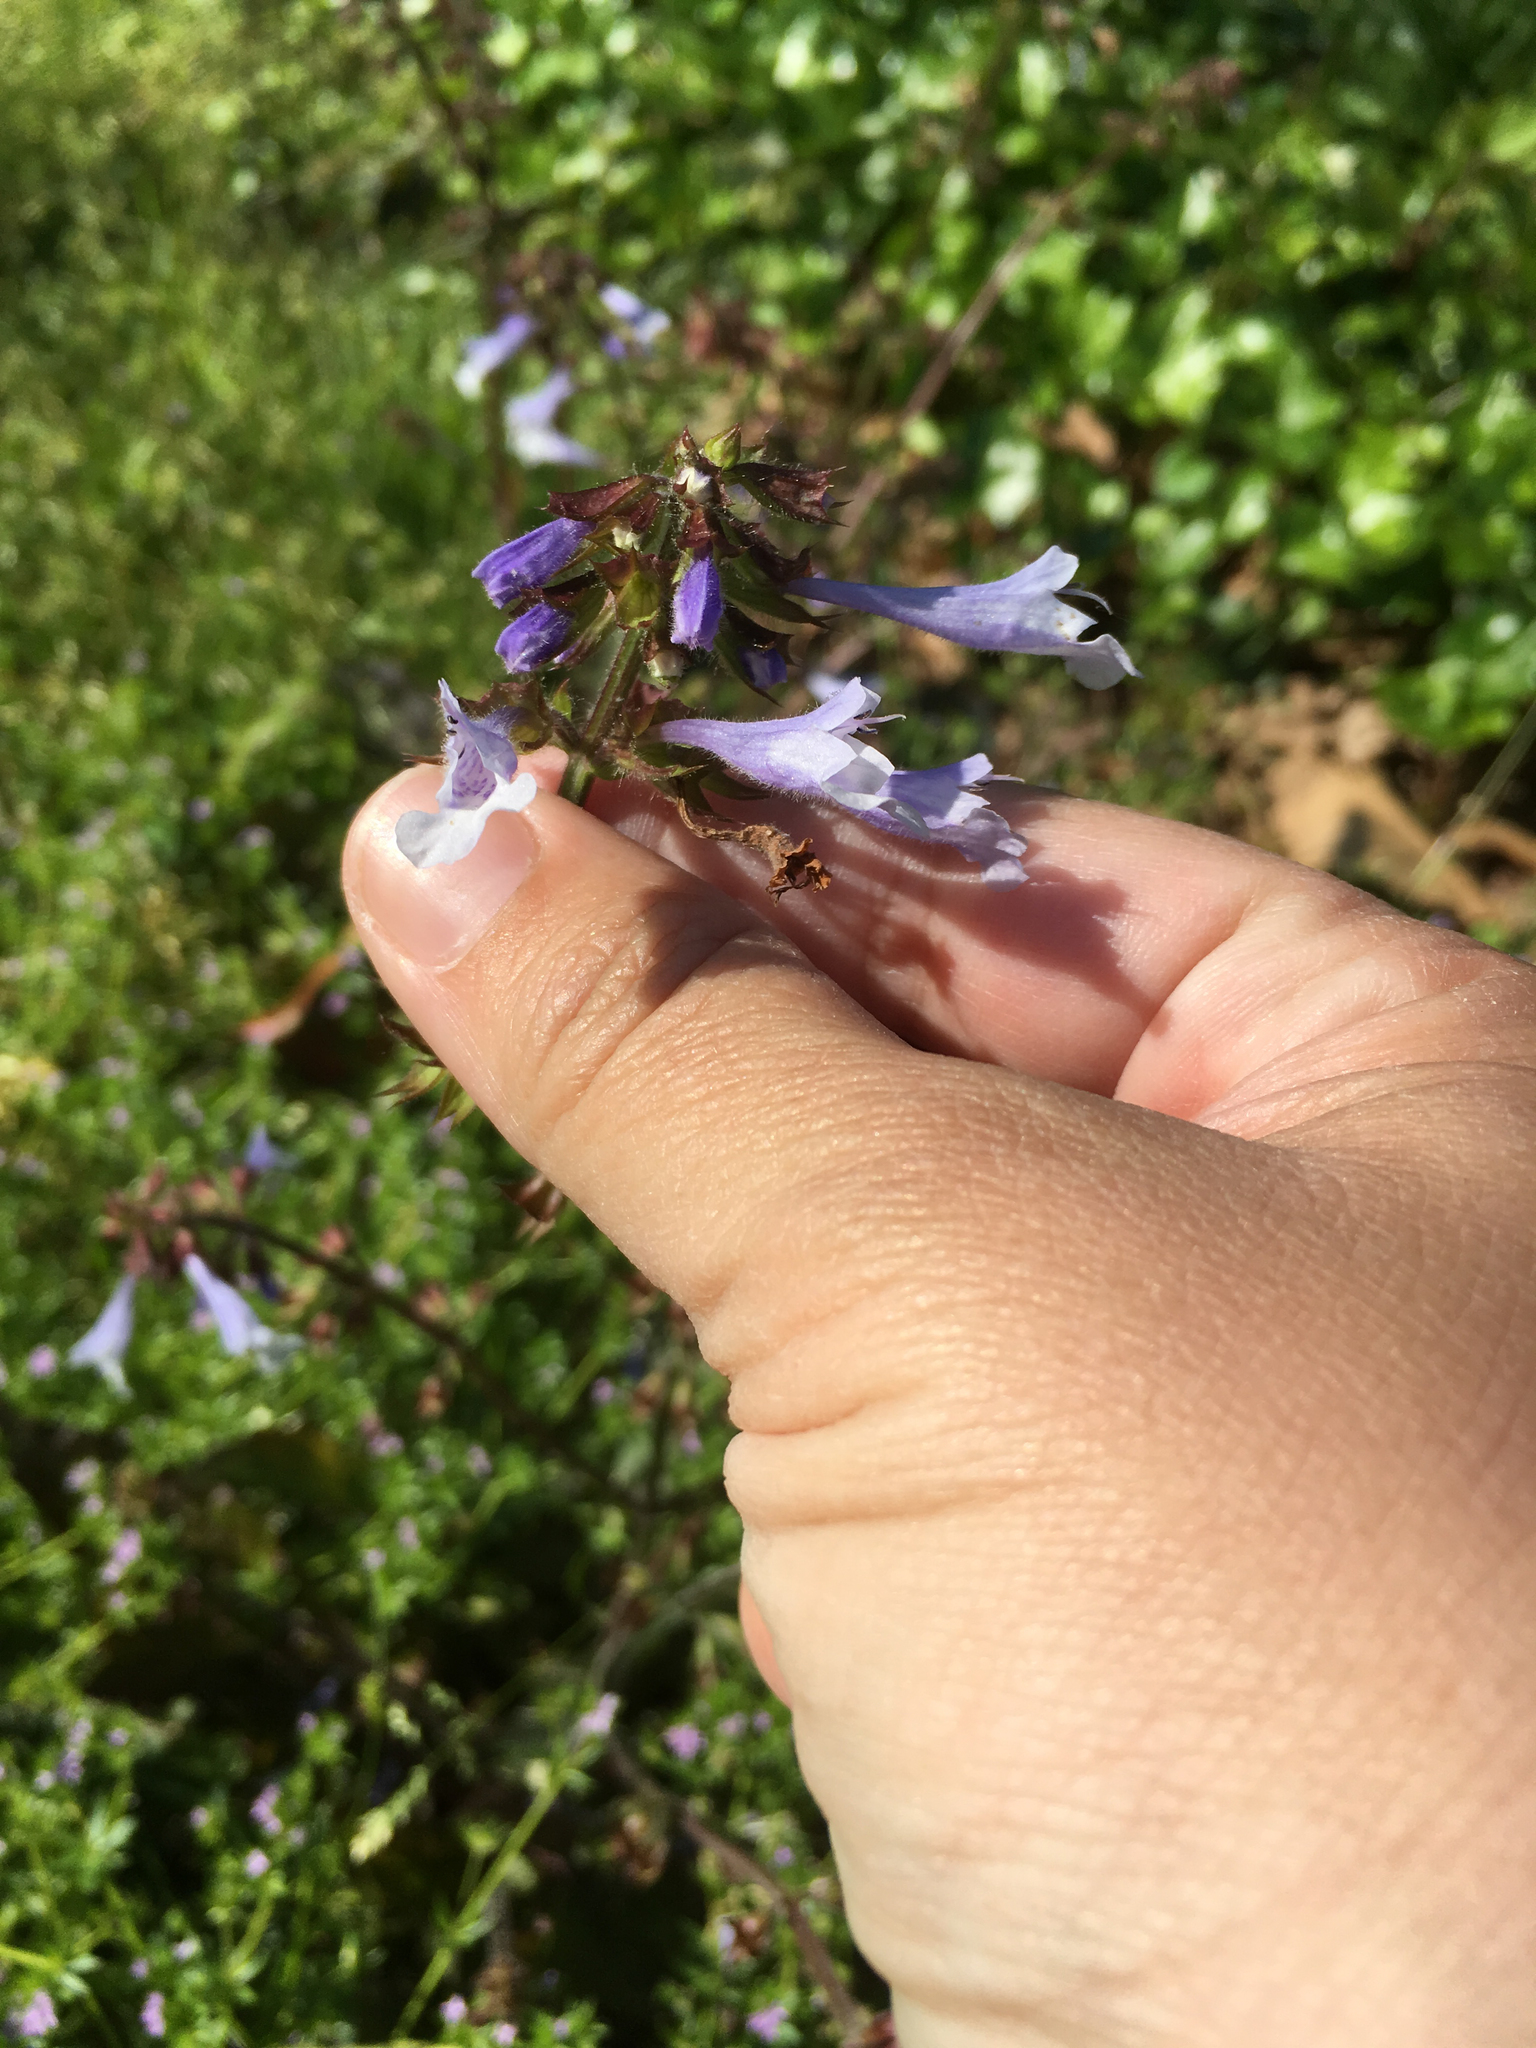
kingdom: Plantae
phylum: Tracheophyta
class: Magnoliopsida
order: Lamiales
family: Lamiaceae
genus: Salvia
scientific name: Salvia lyrata
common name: Cancerweed
